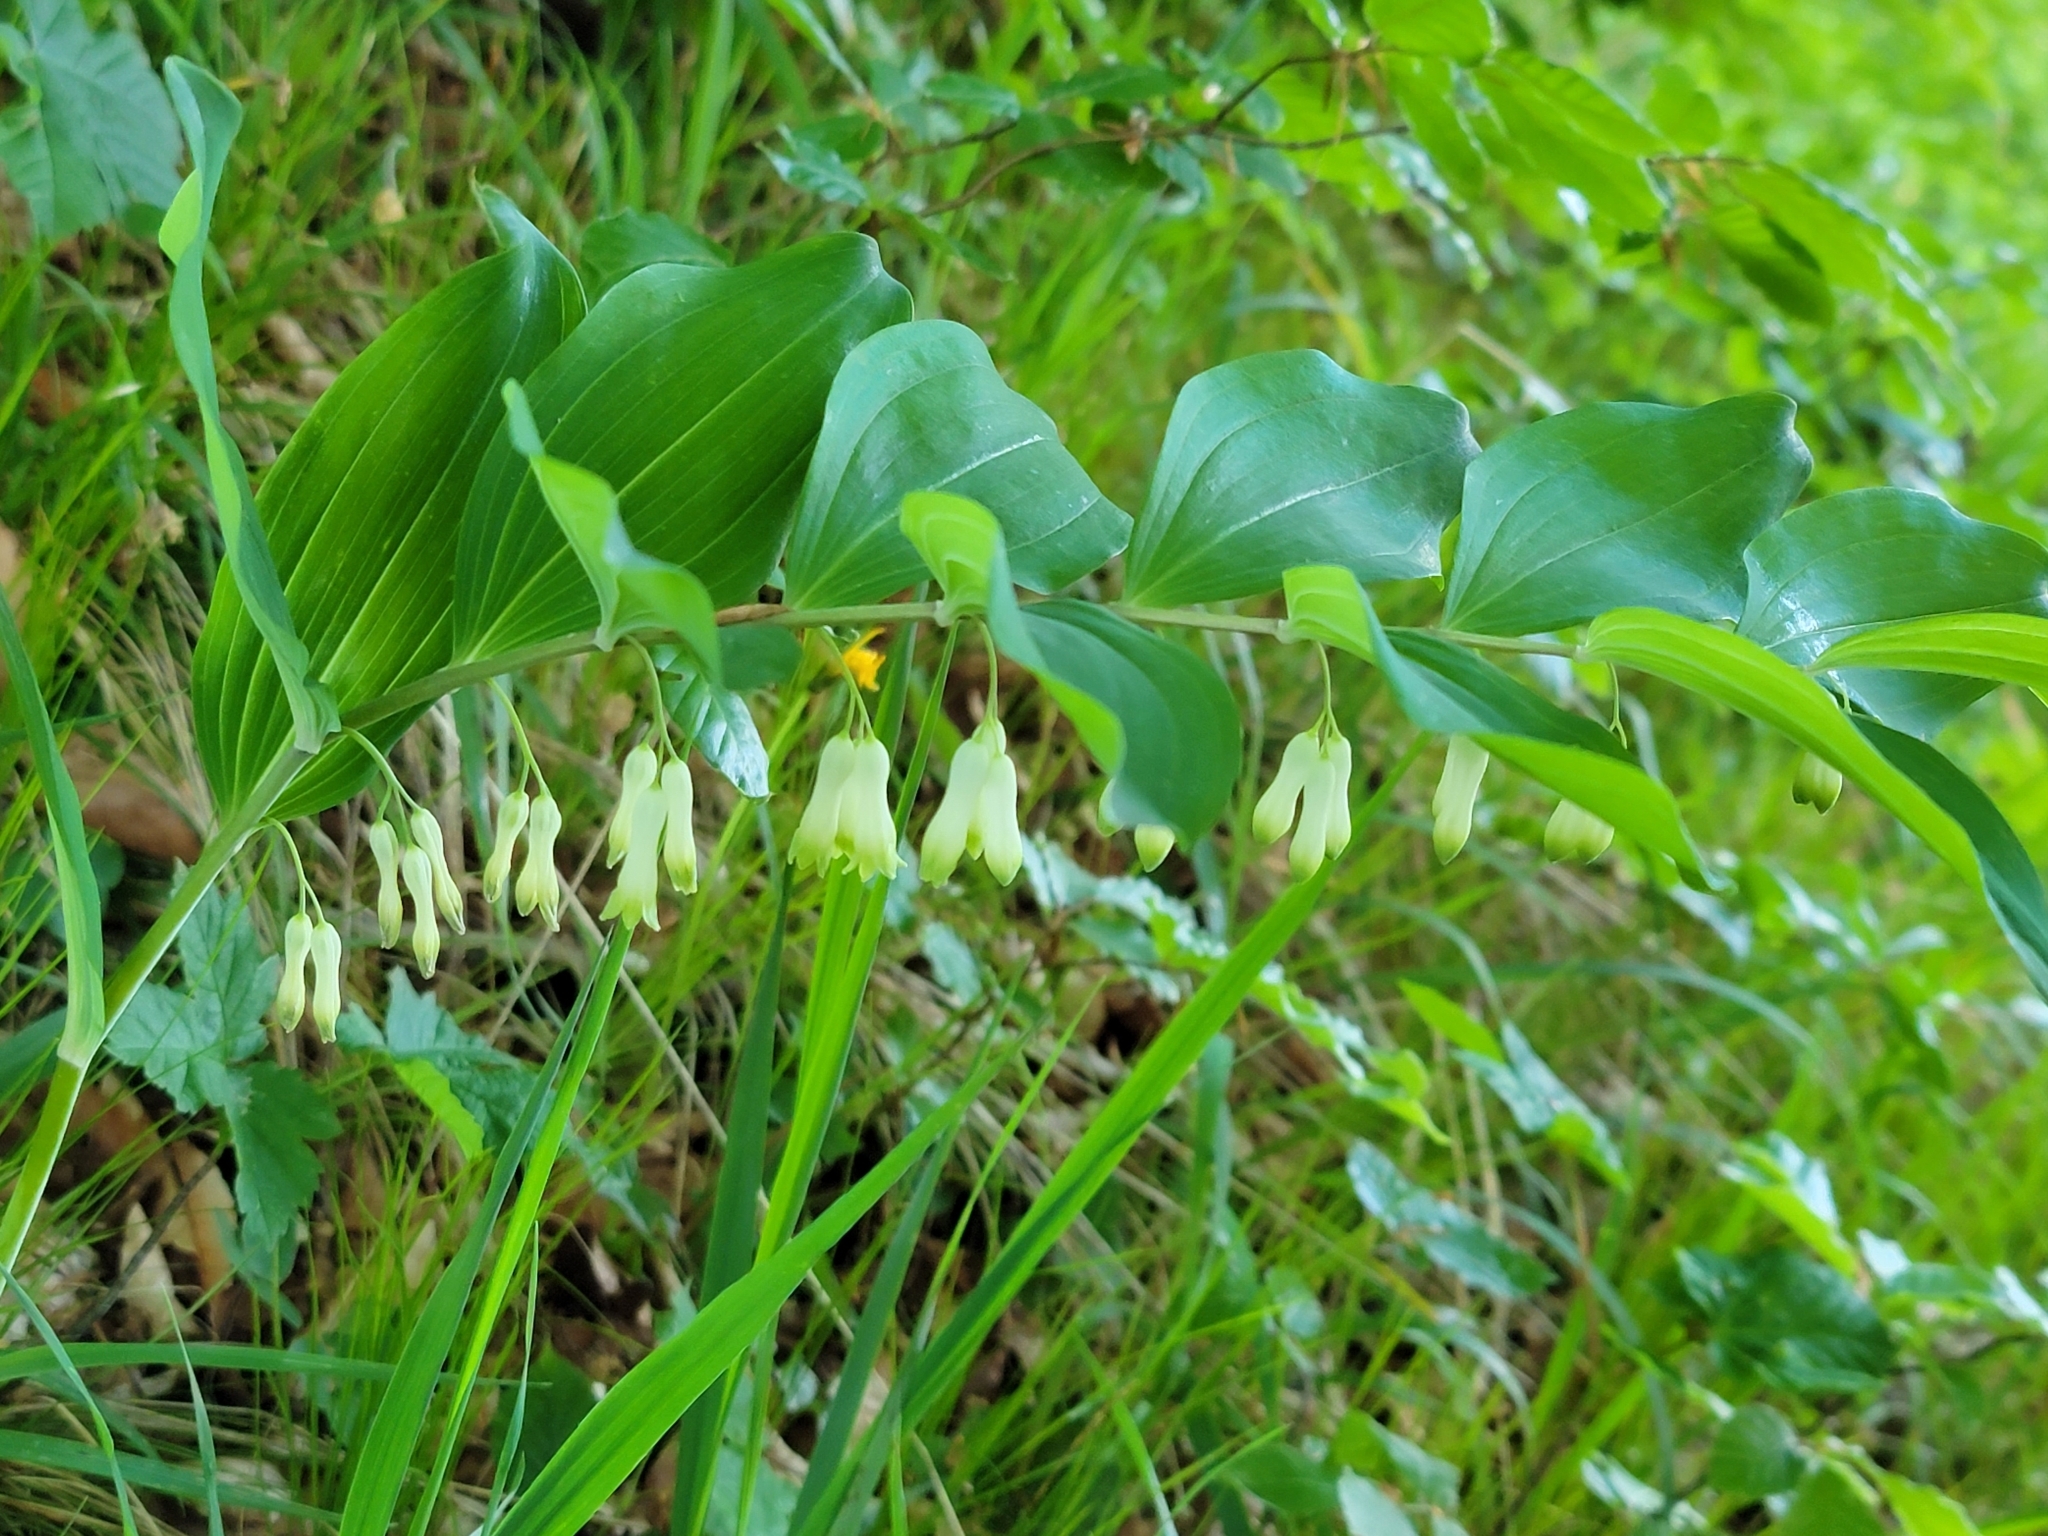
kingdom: Plantae
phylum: Tracheophyta
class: Liliopsida
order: Asparagales
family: Asparagaceae
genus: Polygonatum
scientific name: Polygonatum multiflorum
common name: Solomon's-seal
